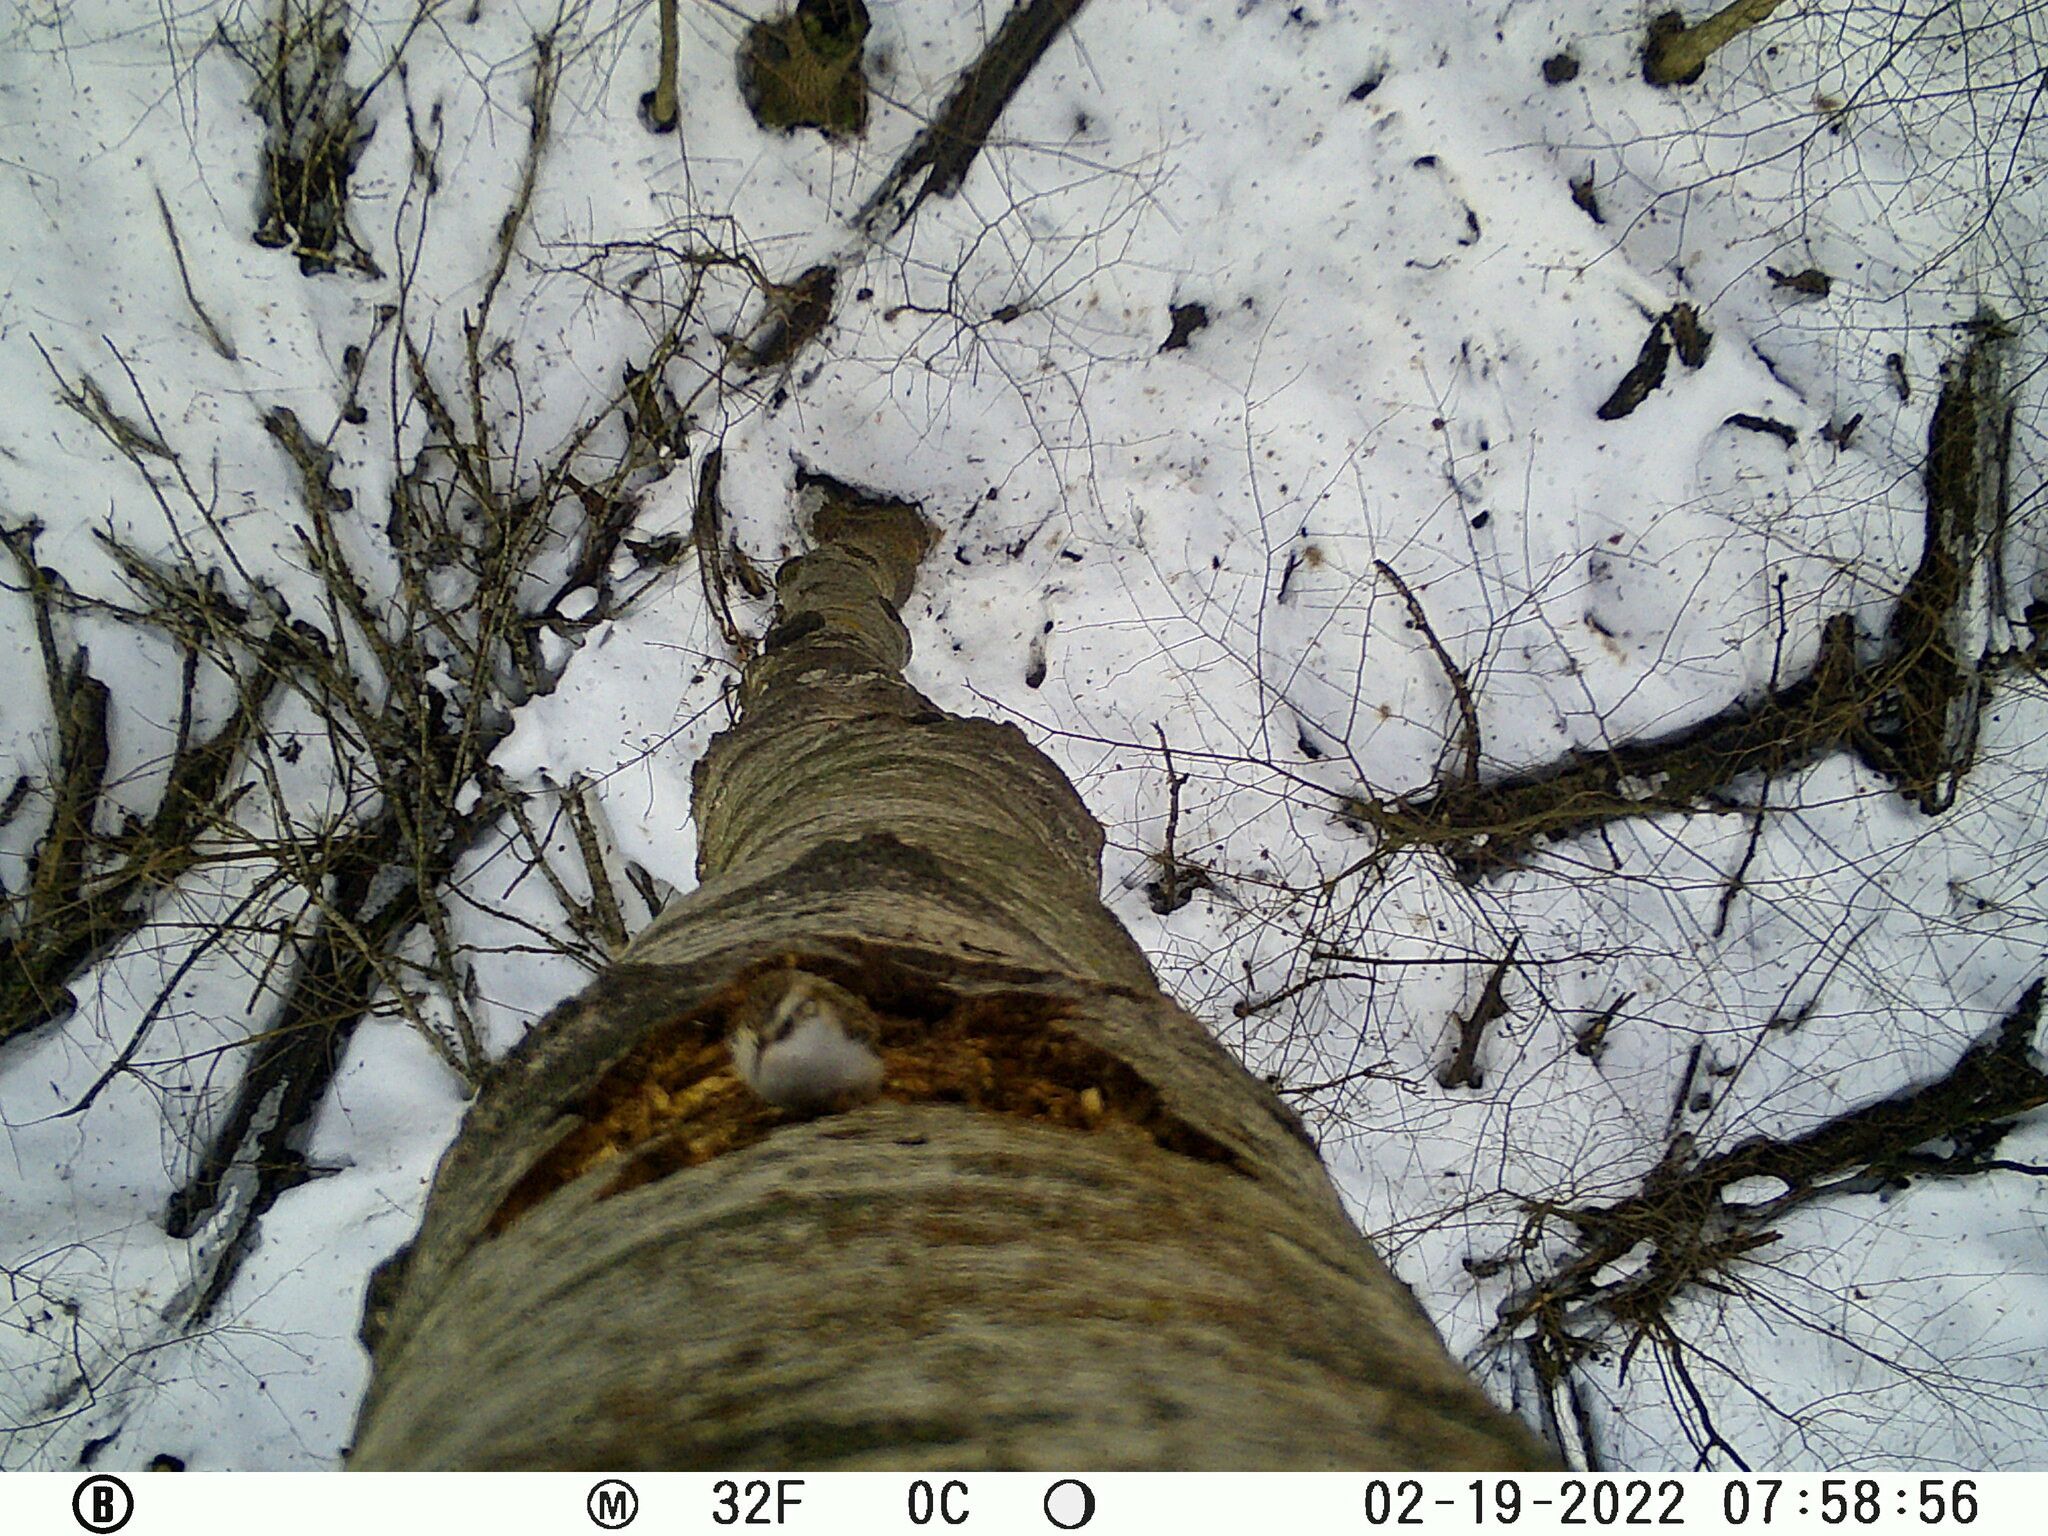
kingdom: Animalia
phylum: Chordata
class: Aves
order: Passeriformes
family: Certhiidae
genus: Certhia
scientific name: Certhia familiaris
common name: Eurasian treecreeper
